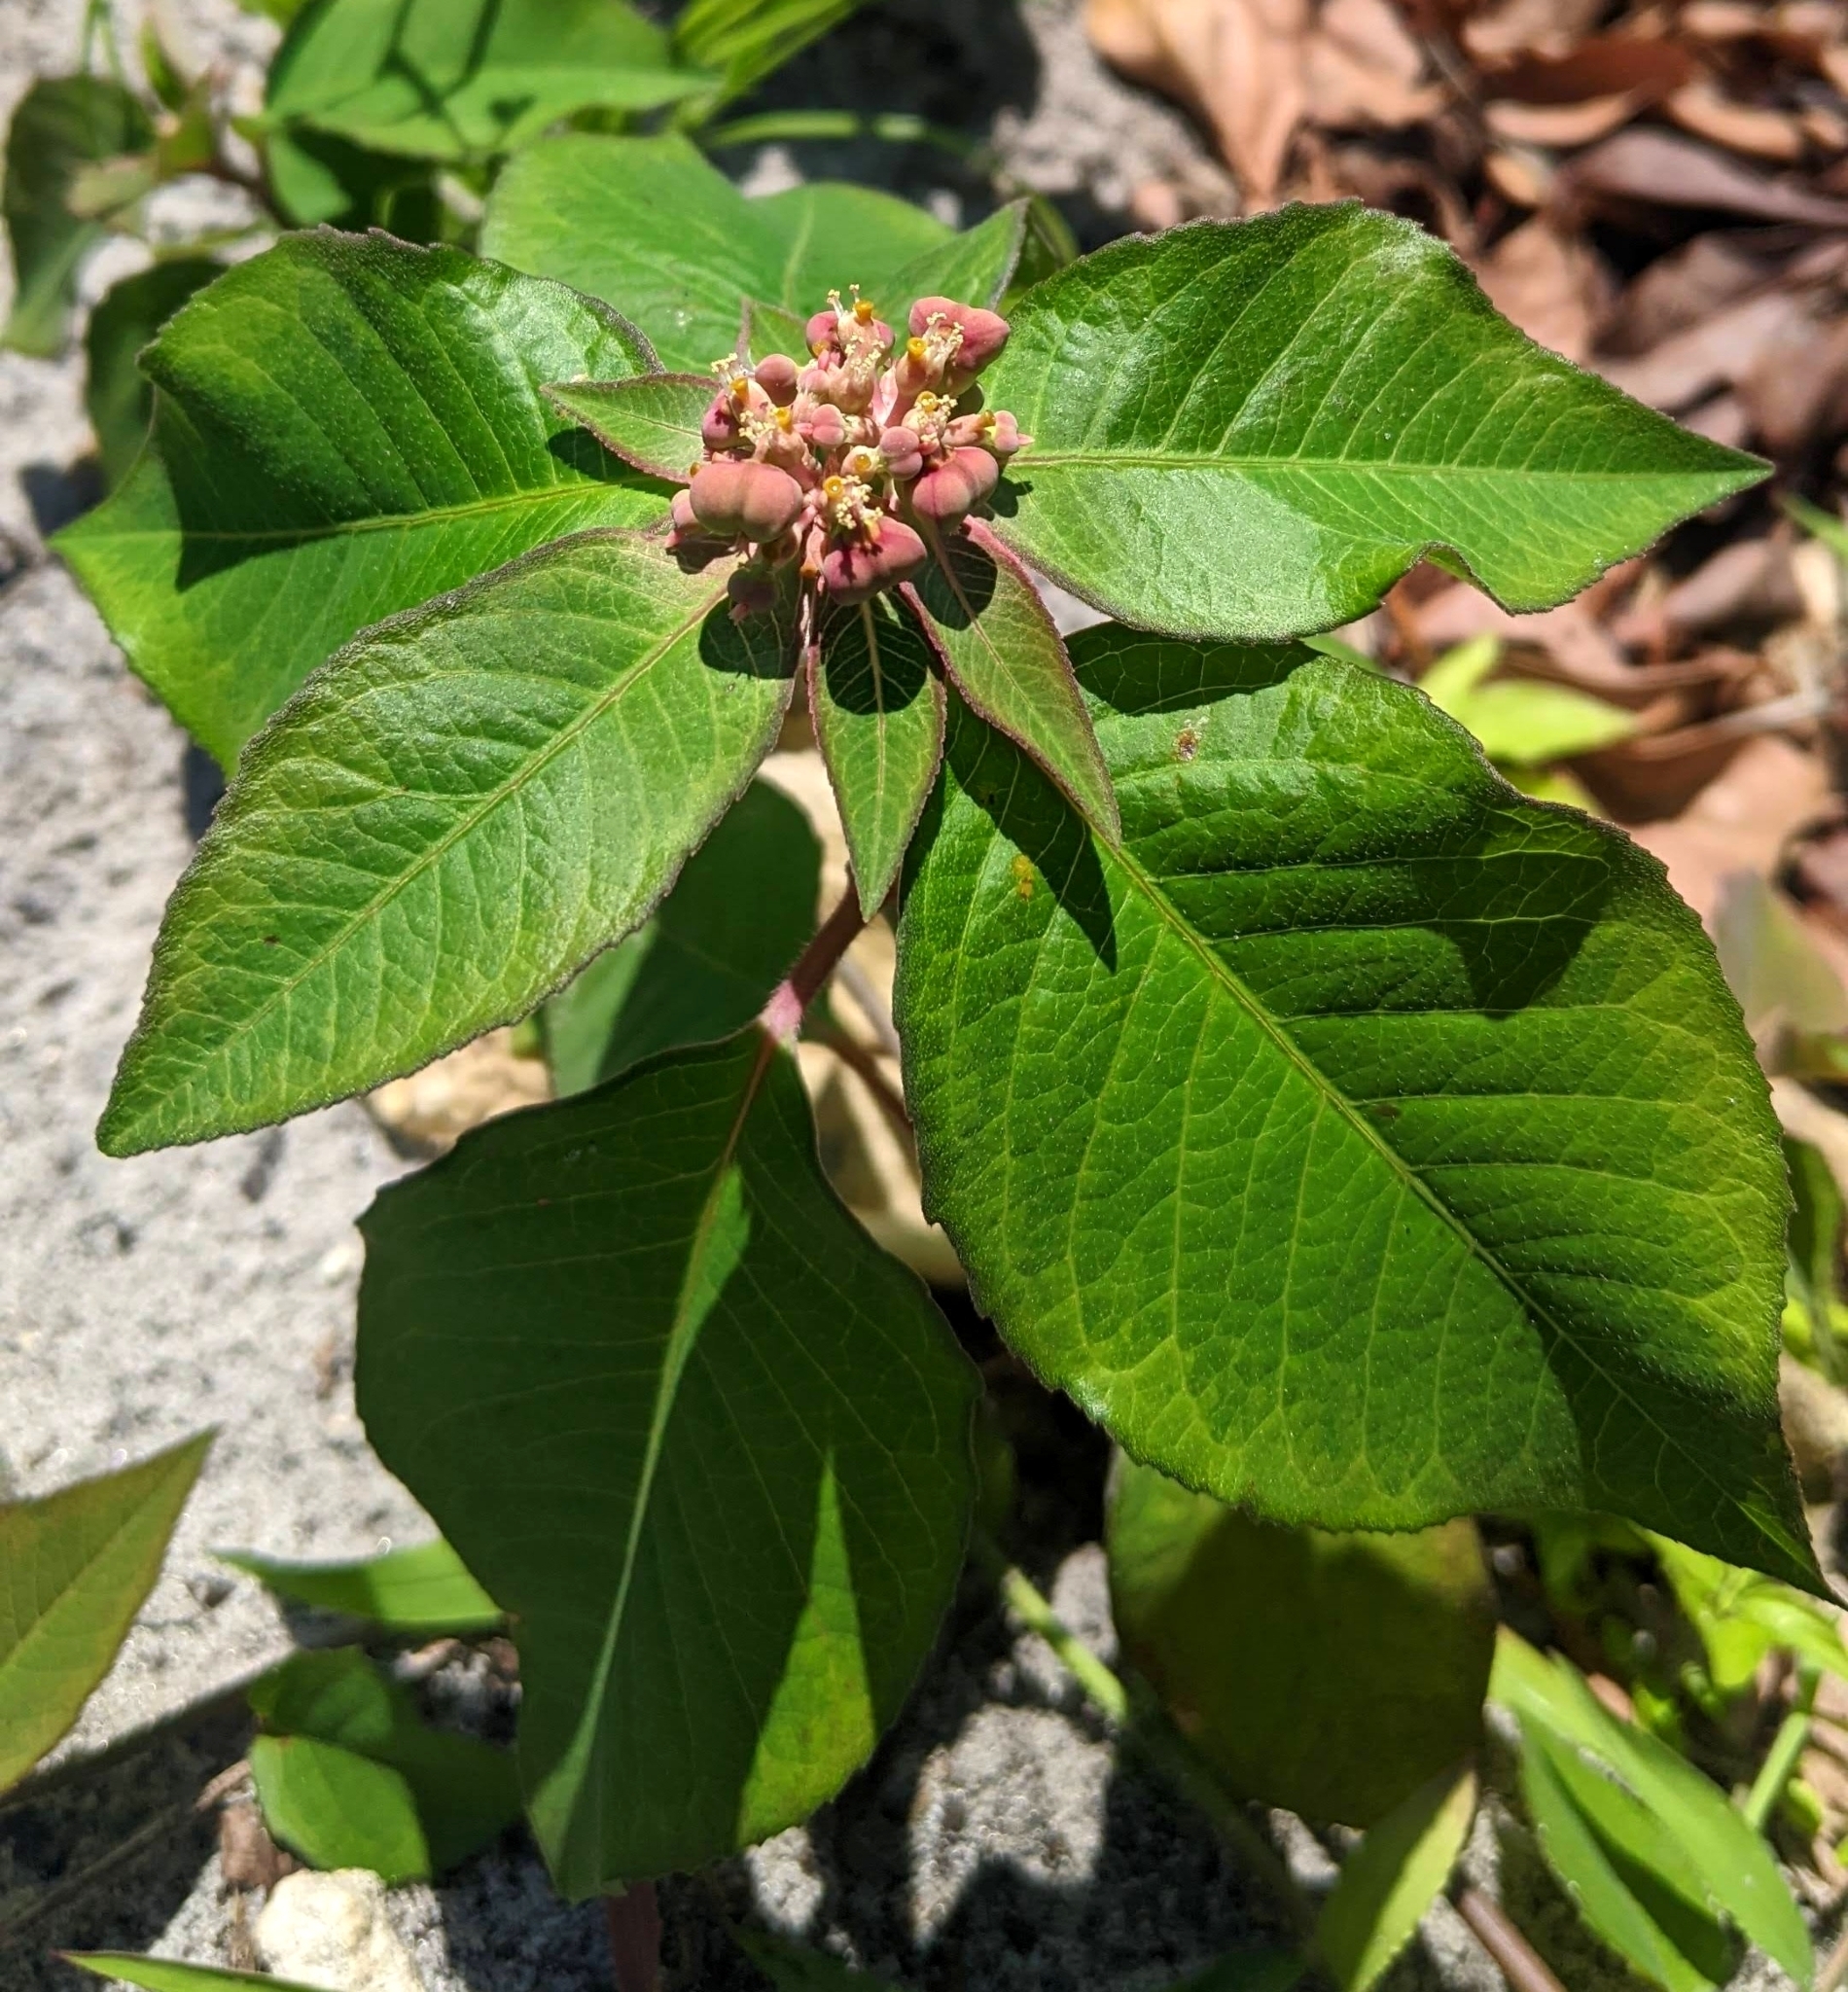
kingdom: Plantae
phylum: Tracheophyta
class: Magnoliopsida
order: Malpighiales
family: Euphorbiaceae
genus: Euphorbia
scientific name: Euphorbia heterophylla
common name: Mexican fireplant
